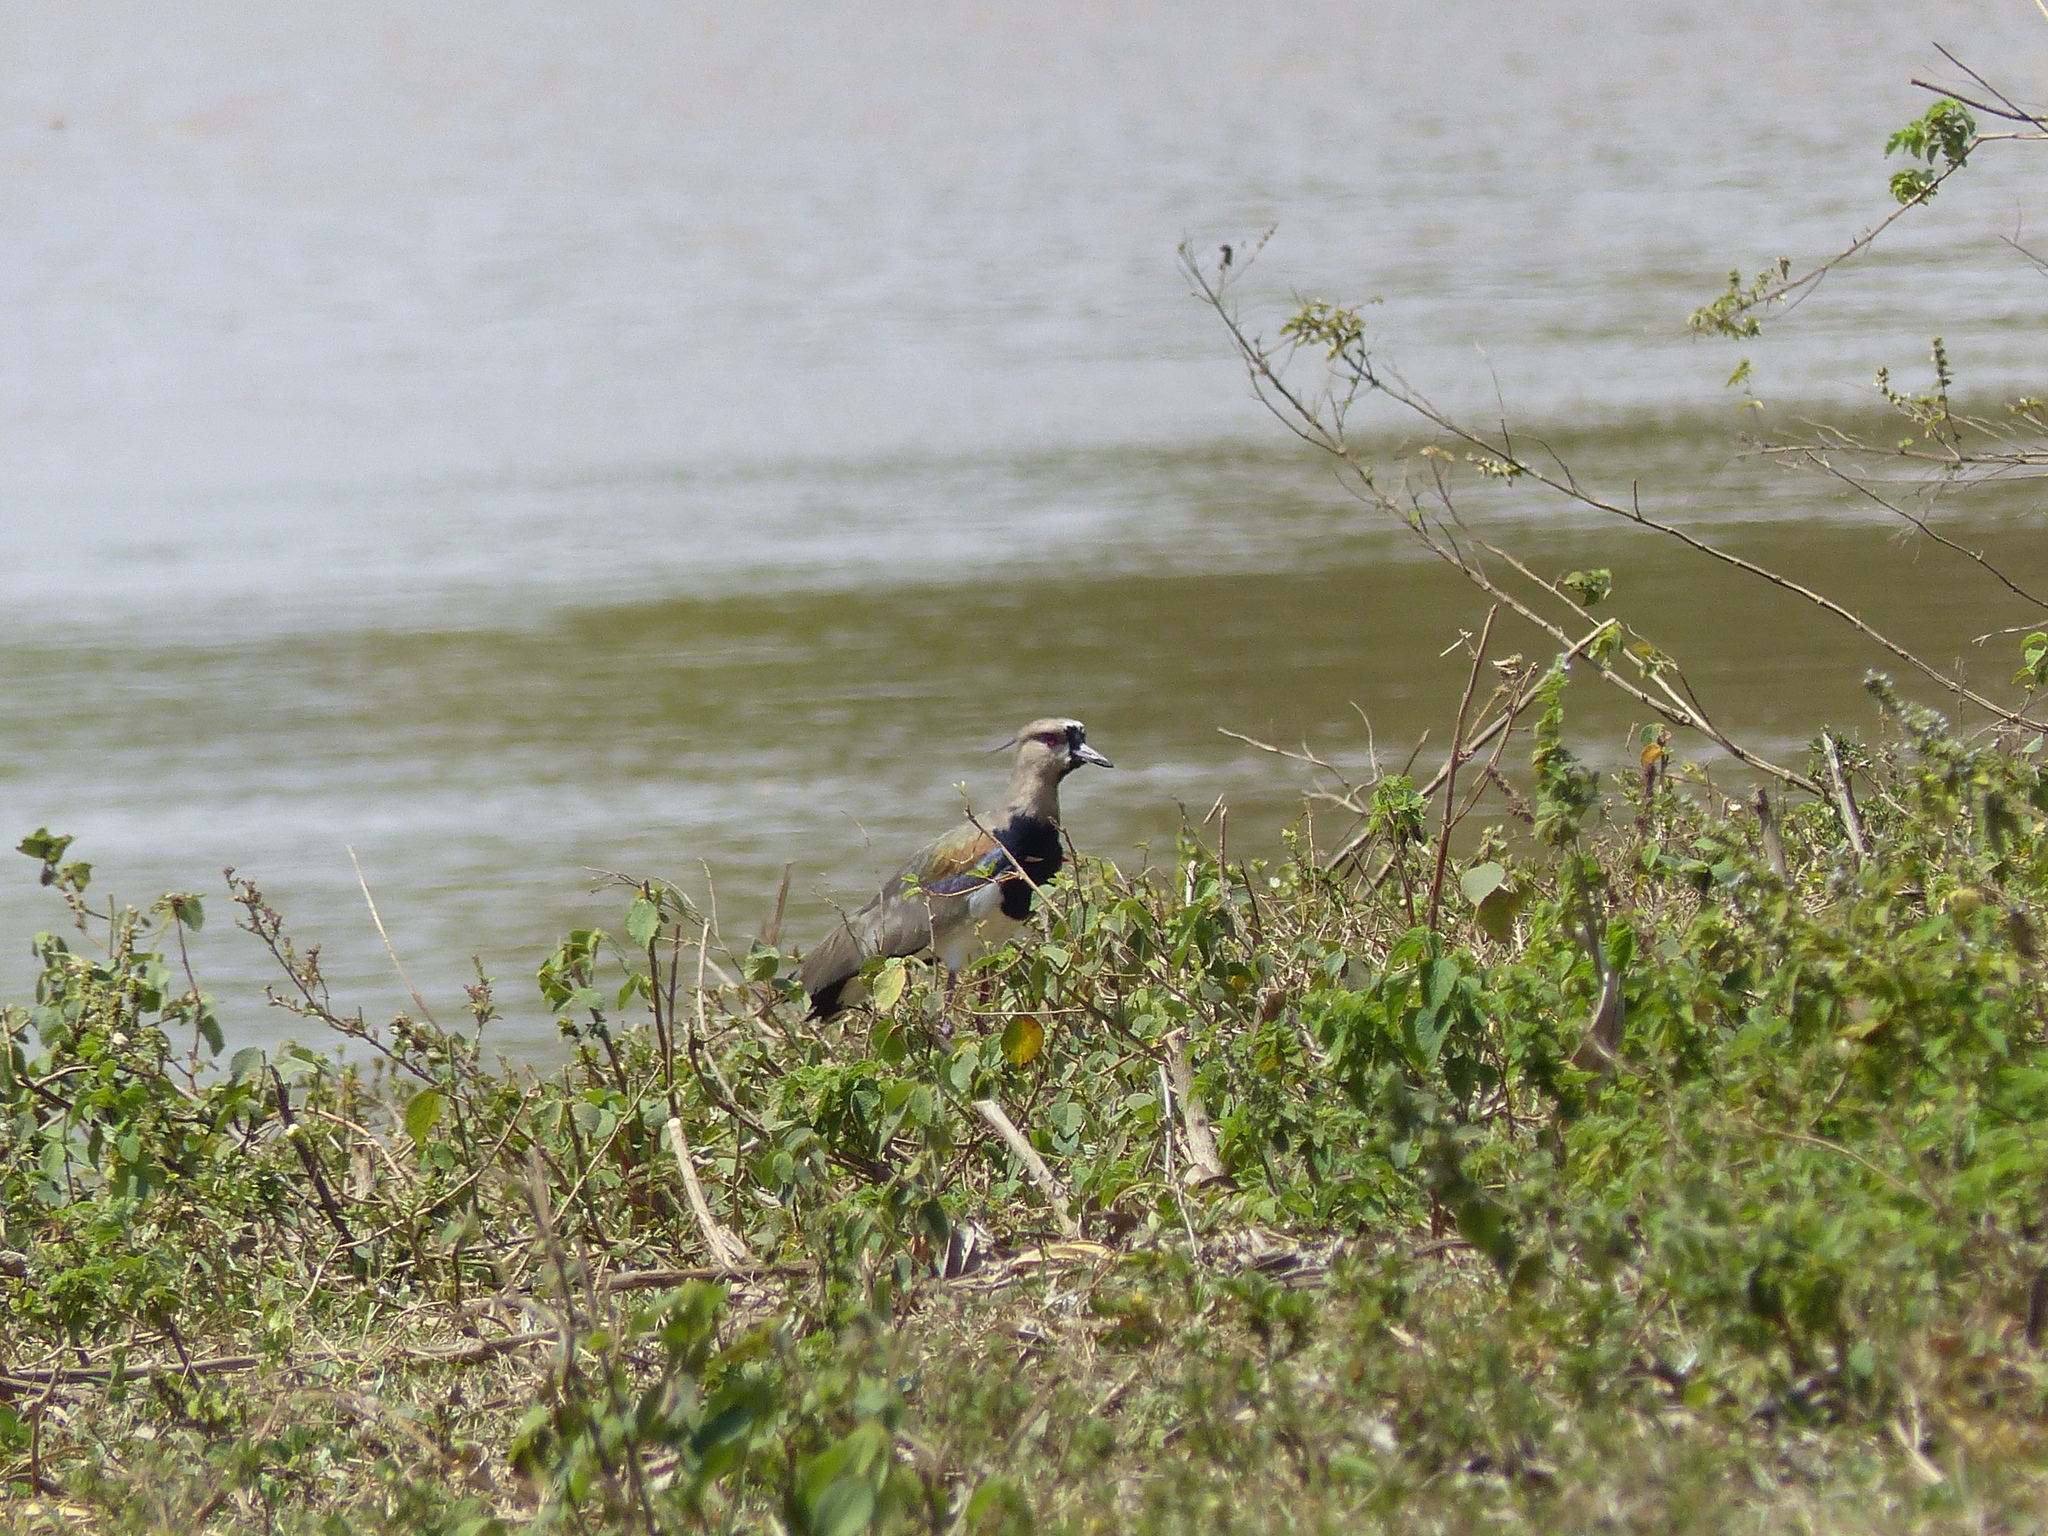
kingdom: Animalia
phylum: Chordata
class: Aves
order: Charadriiformes
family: Charadriidae
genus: Vanellus
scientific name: Vanellus chilensis
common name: Southern lapwing
